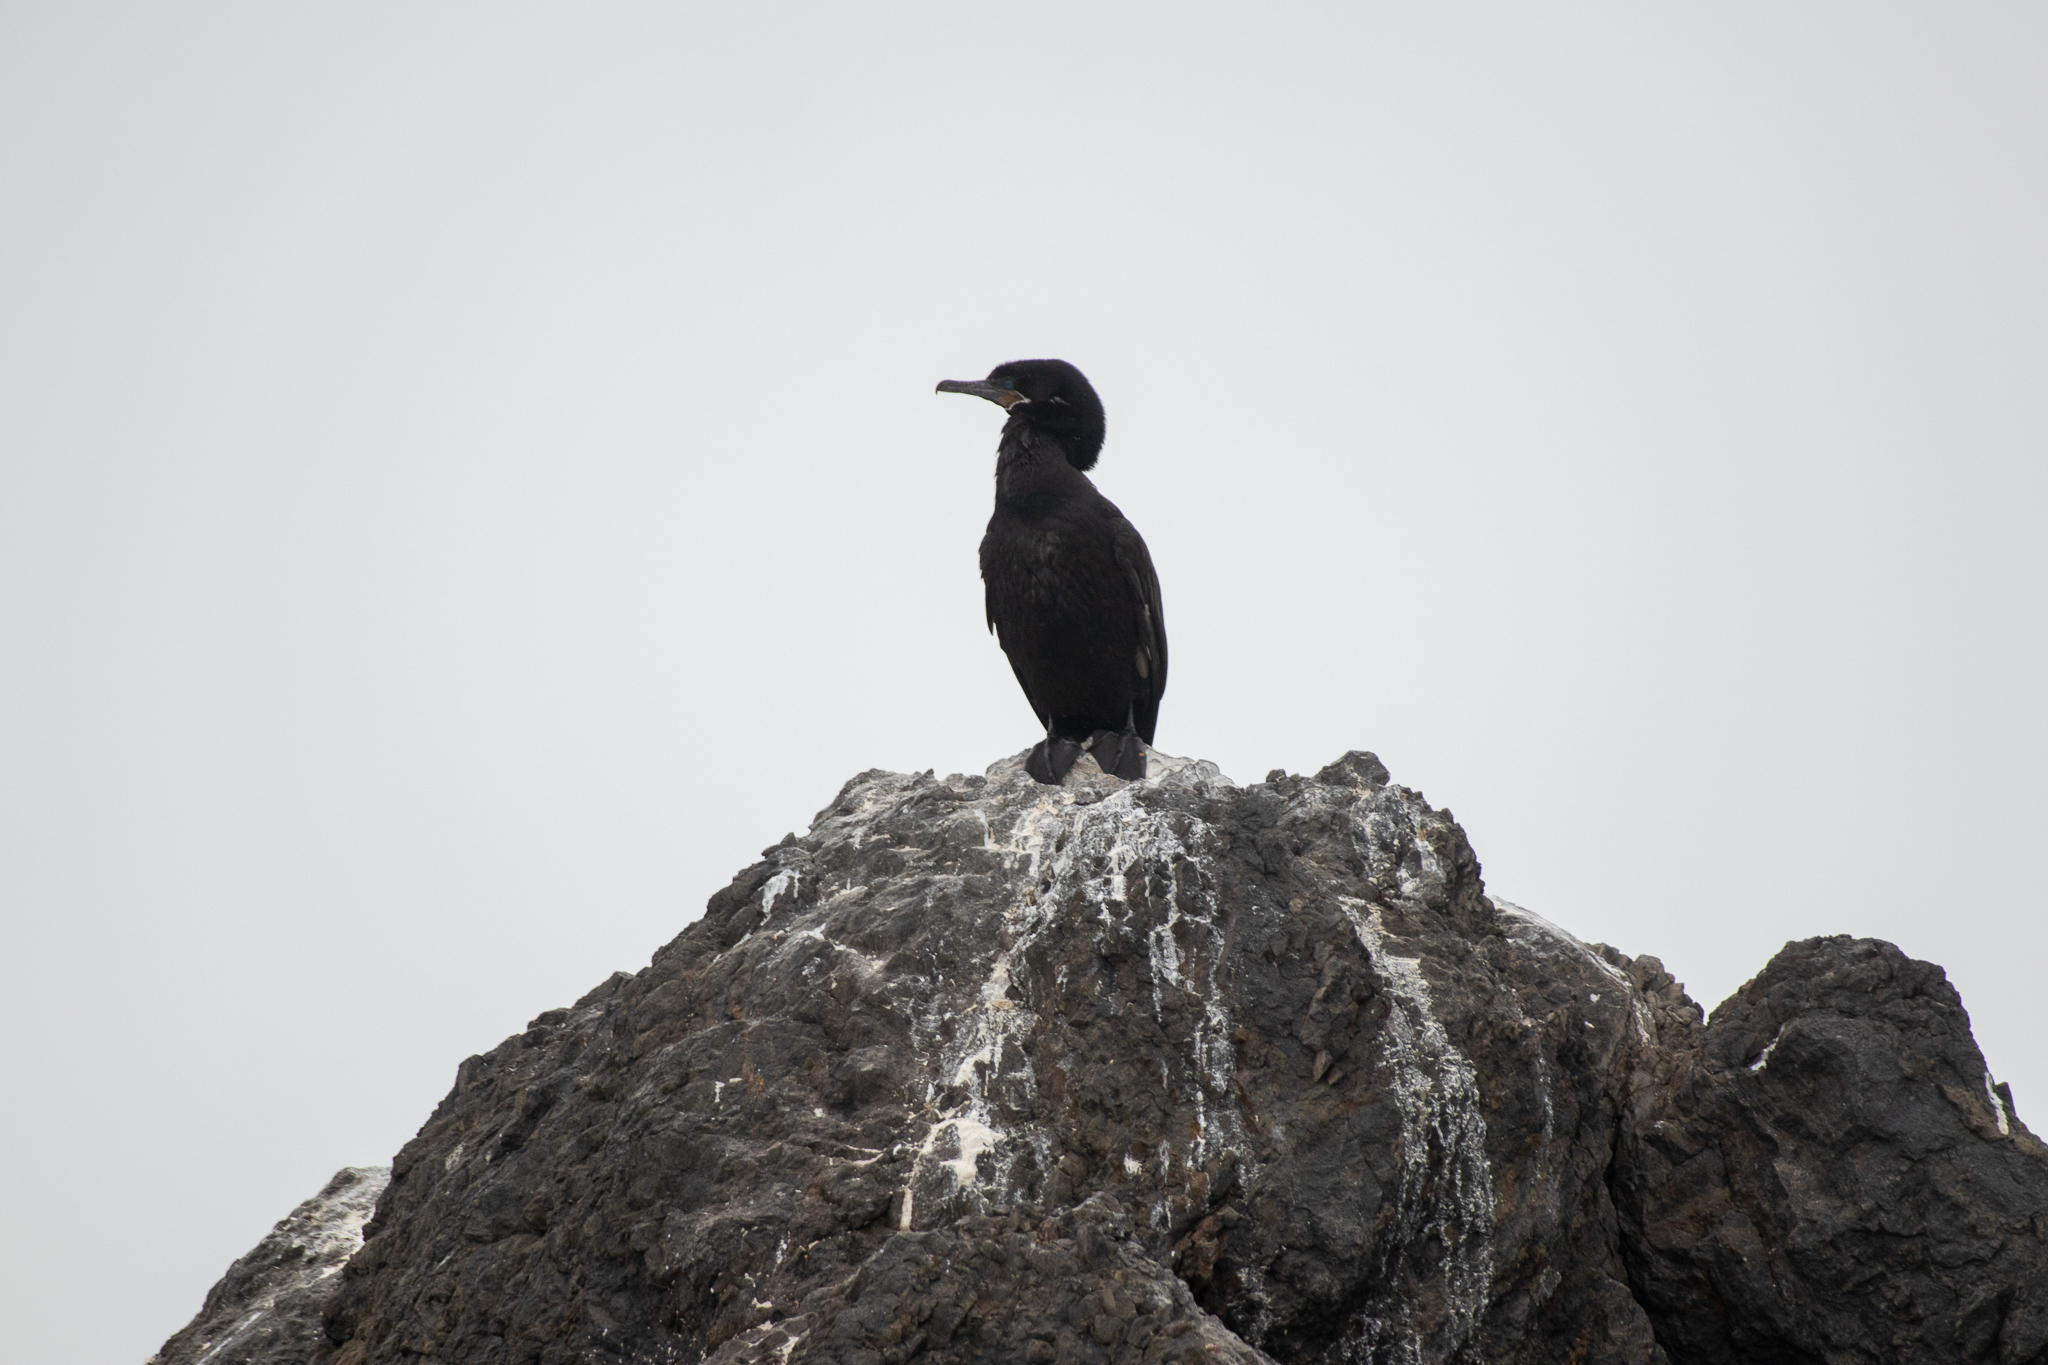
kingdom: Animalia
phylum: Chordata
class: Aves
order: Suliformes
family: Phalacrocoracidae
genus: Phalacrocorax
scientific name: Phalacrocorax brasilianus
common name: Neotropic cormorant
